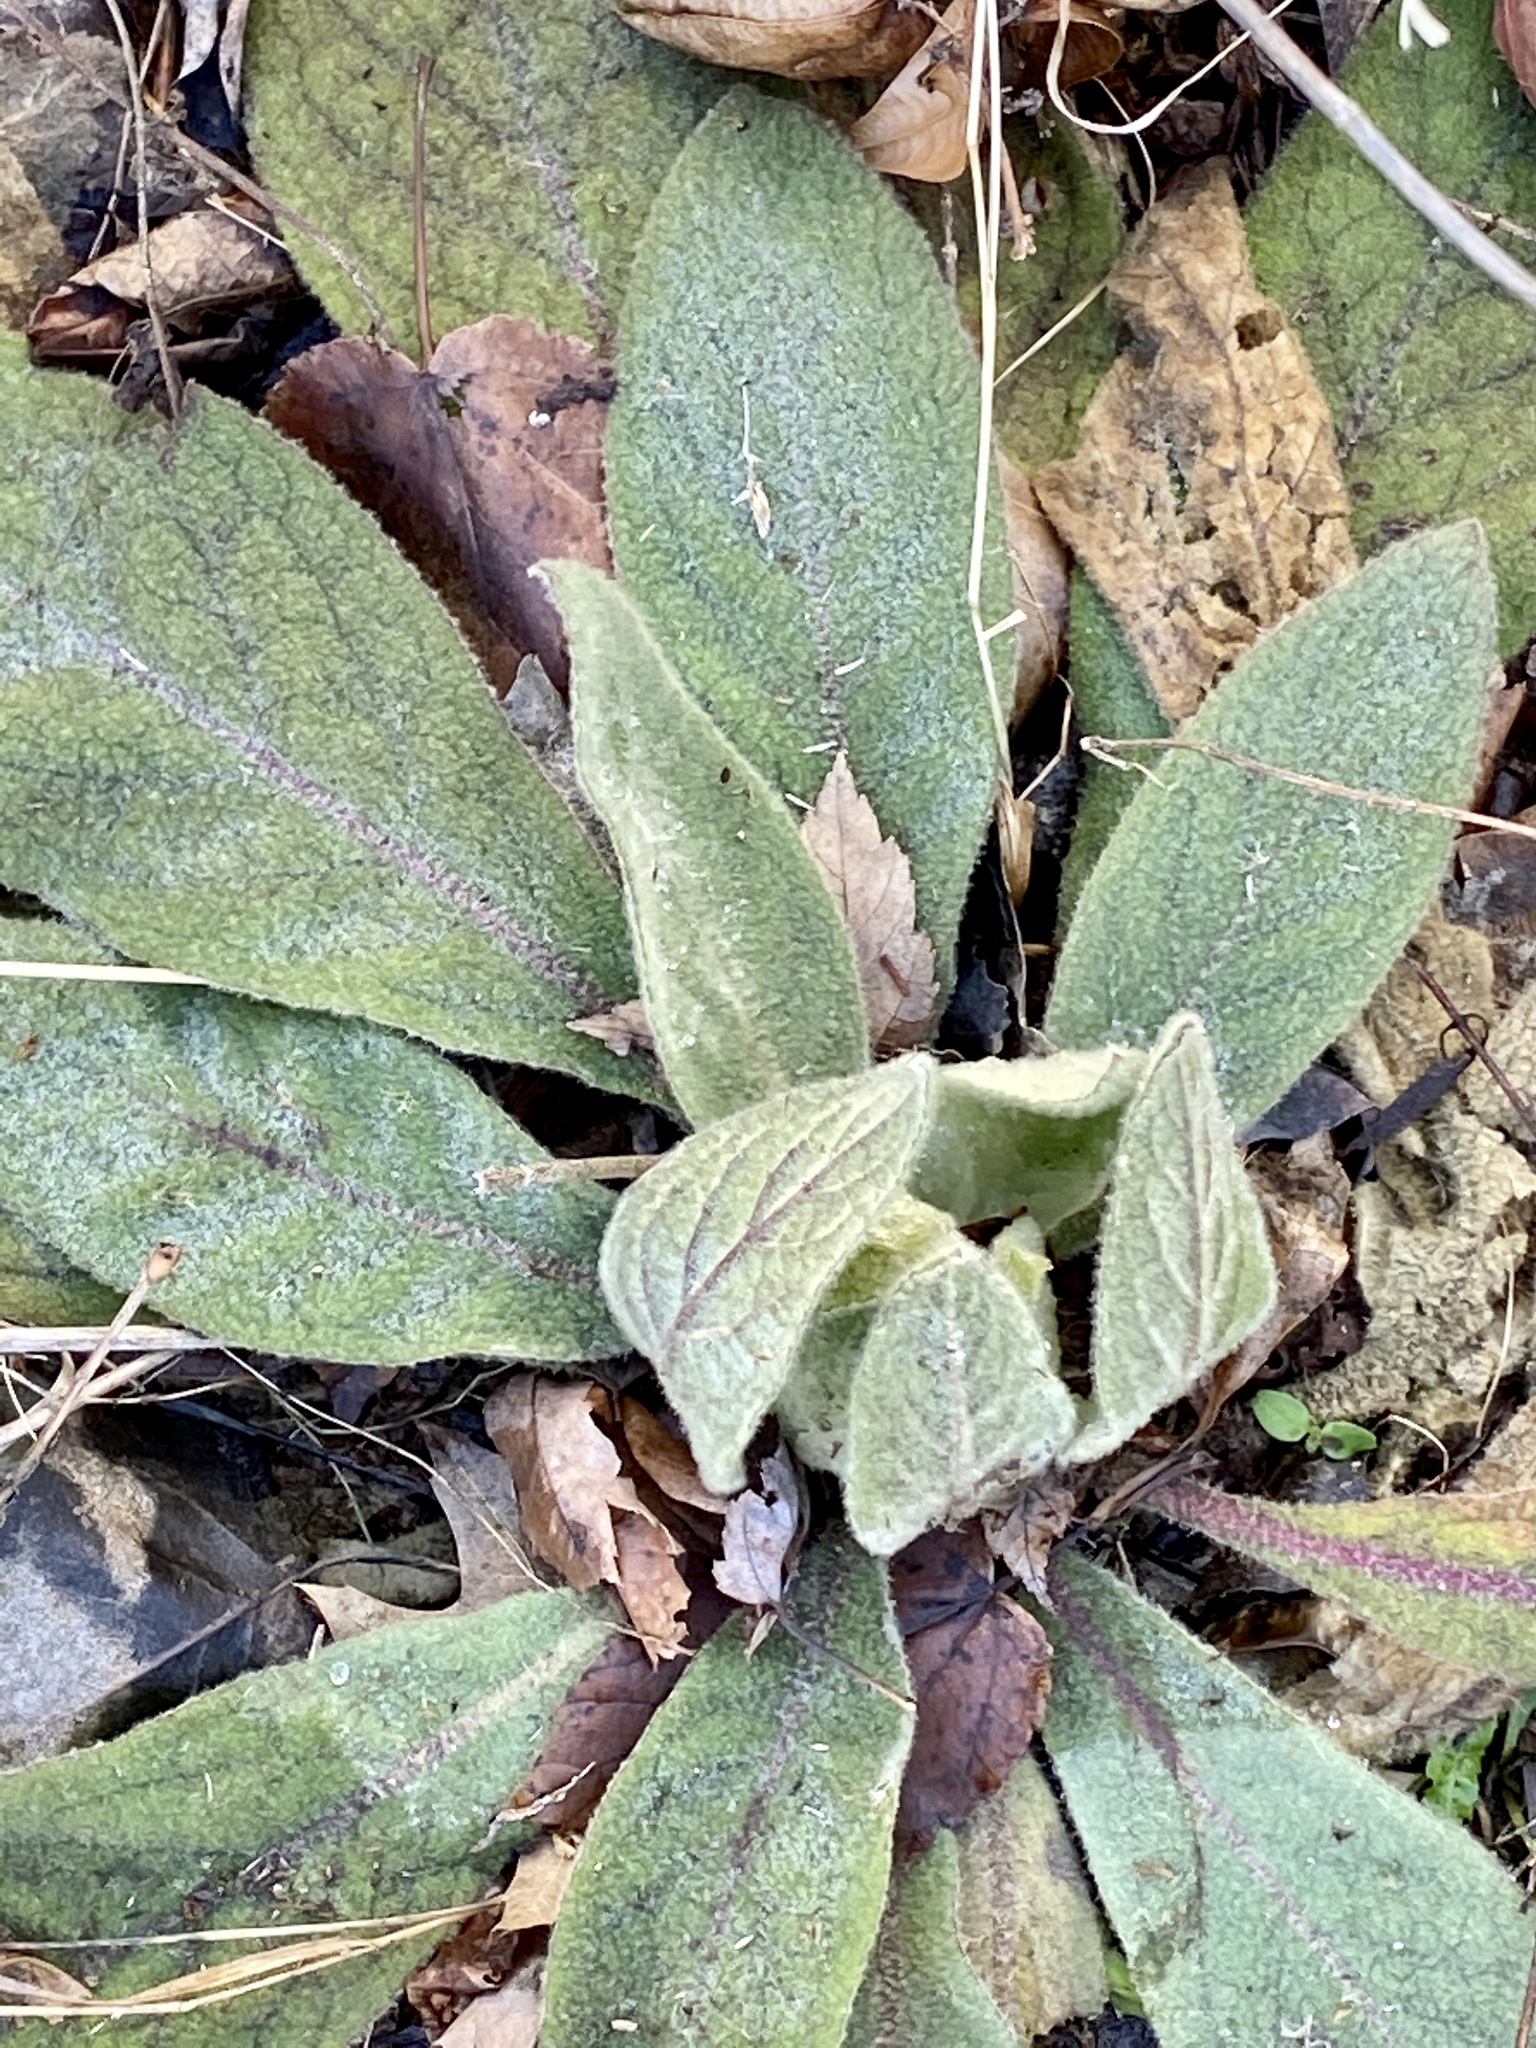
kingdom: Plantae
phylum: Tracheophyta
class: Magnoliopsida
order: Lamiales
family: Scrophulariaceae
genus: Verbascum
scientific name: Verbascum thapsus
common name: Common mullein
